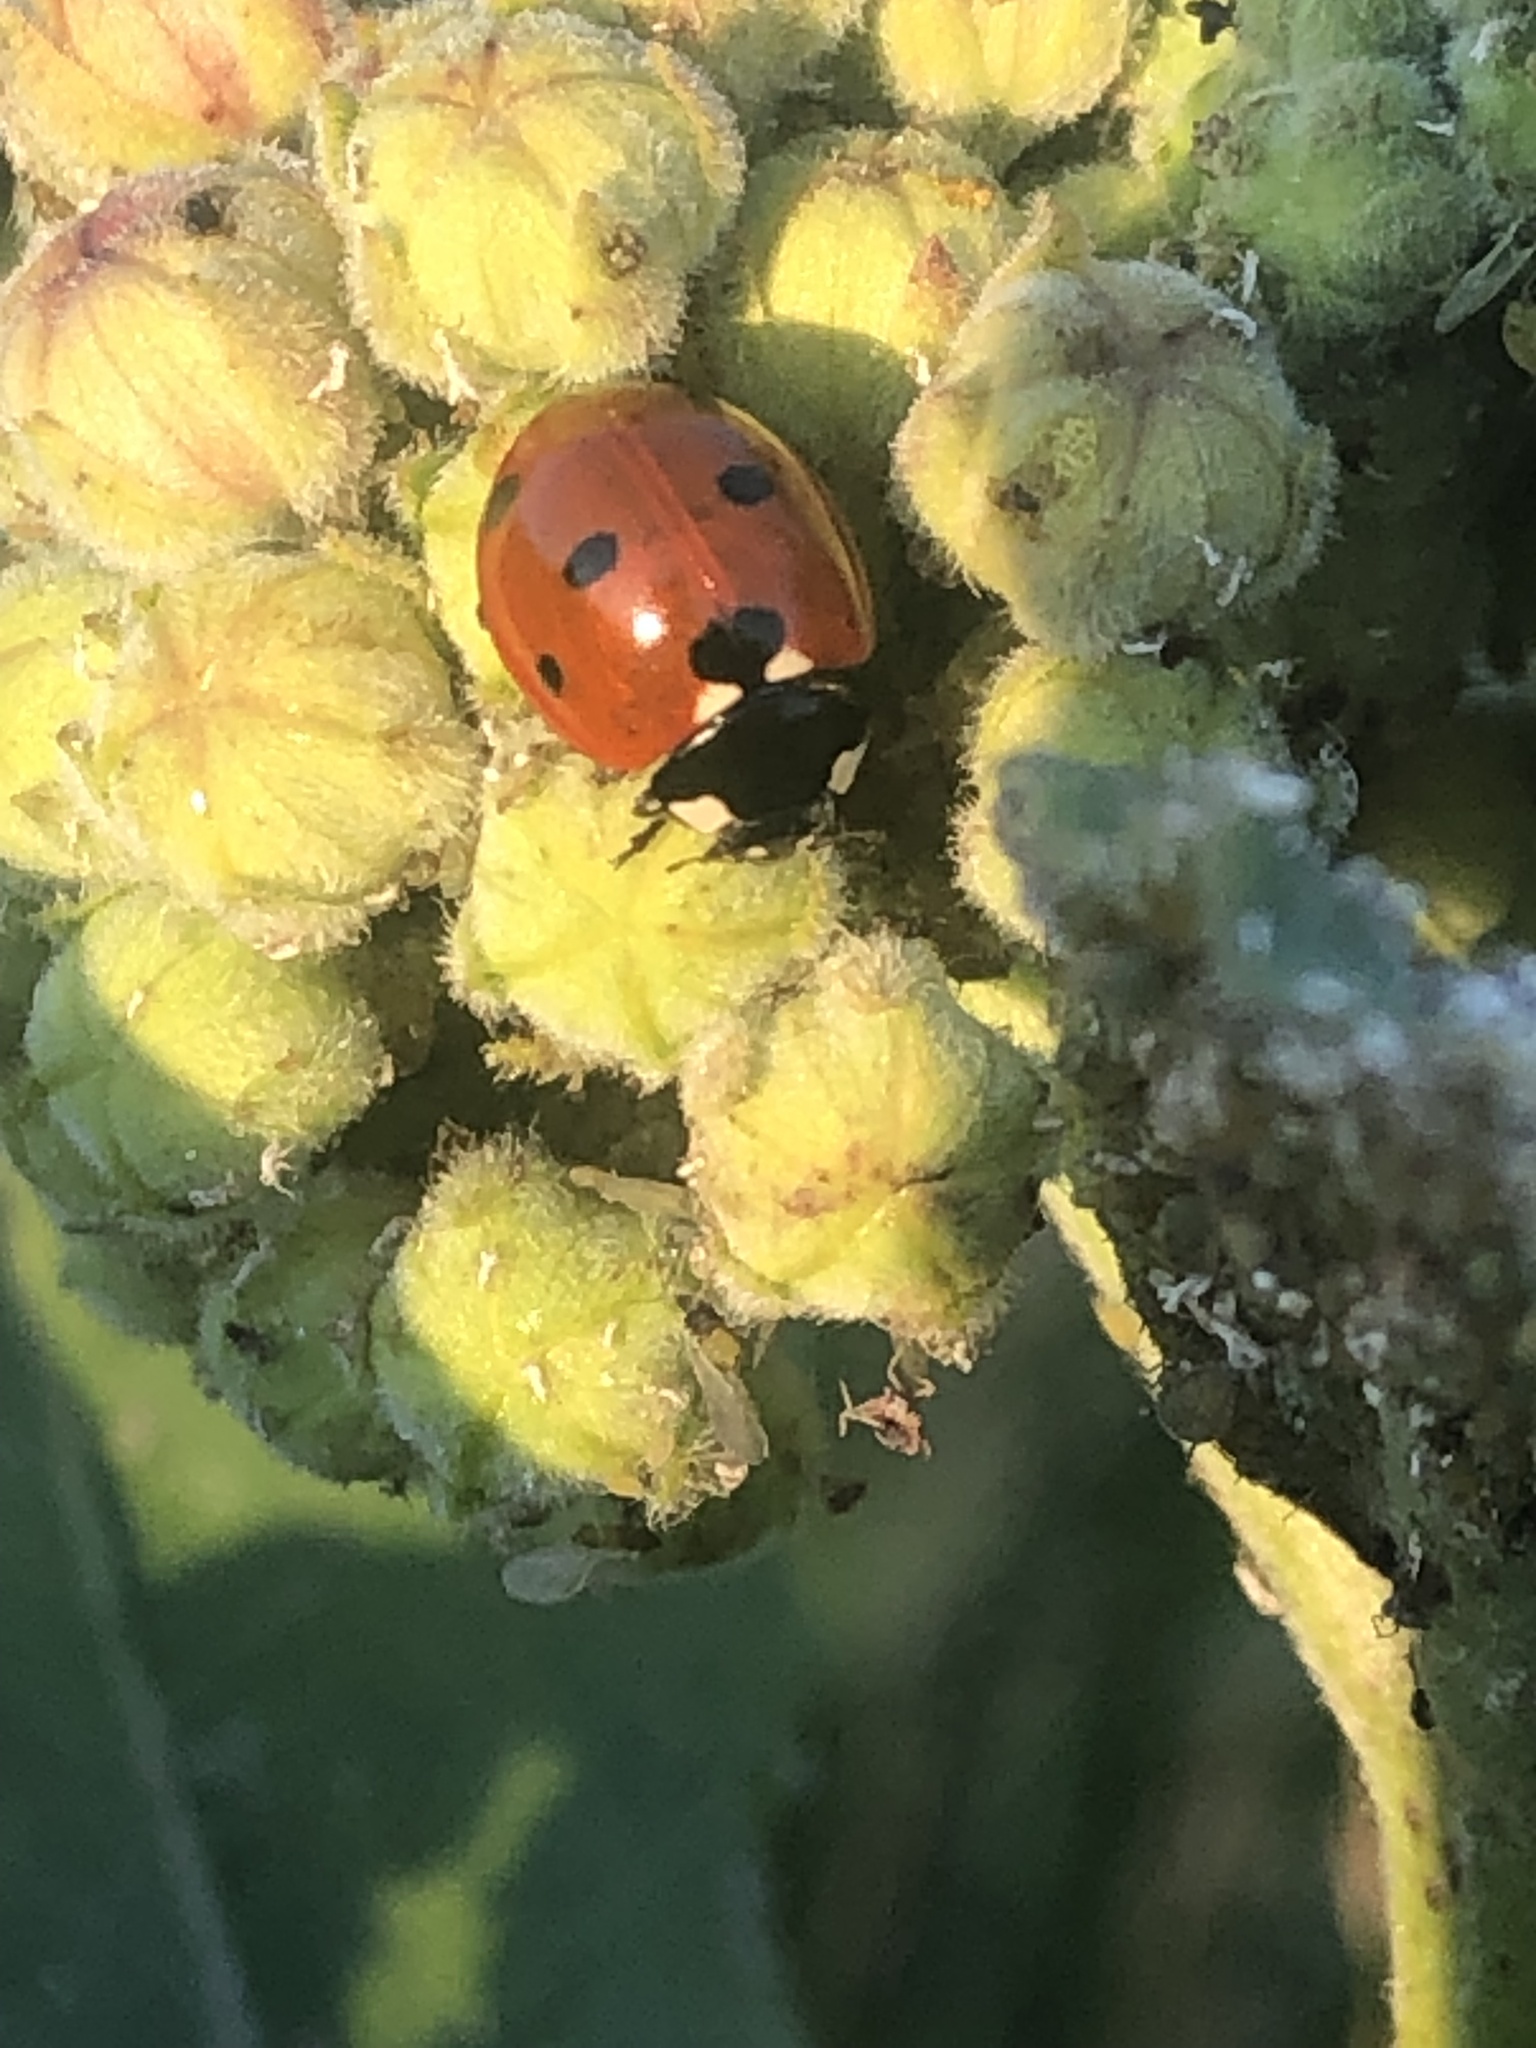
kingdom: Animalia
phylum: Arthropoda
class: Insecta
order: Coleoptera
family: Coccinellidae
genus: Coccinella
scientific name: Coccinella septempunctata
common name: Sevenspotted lady beetle
